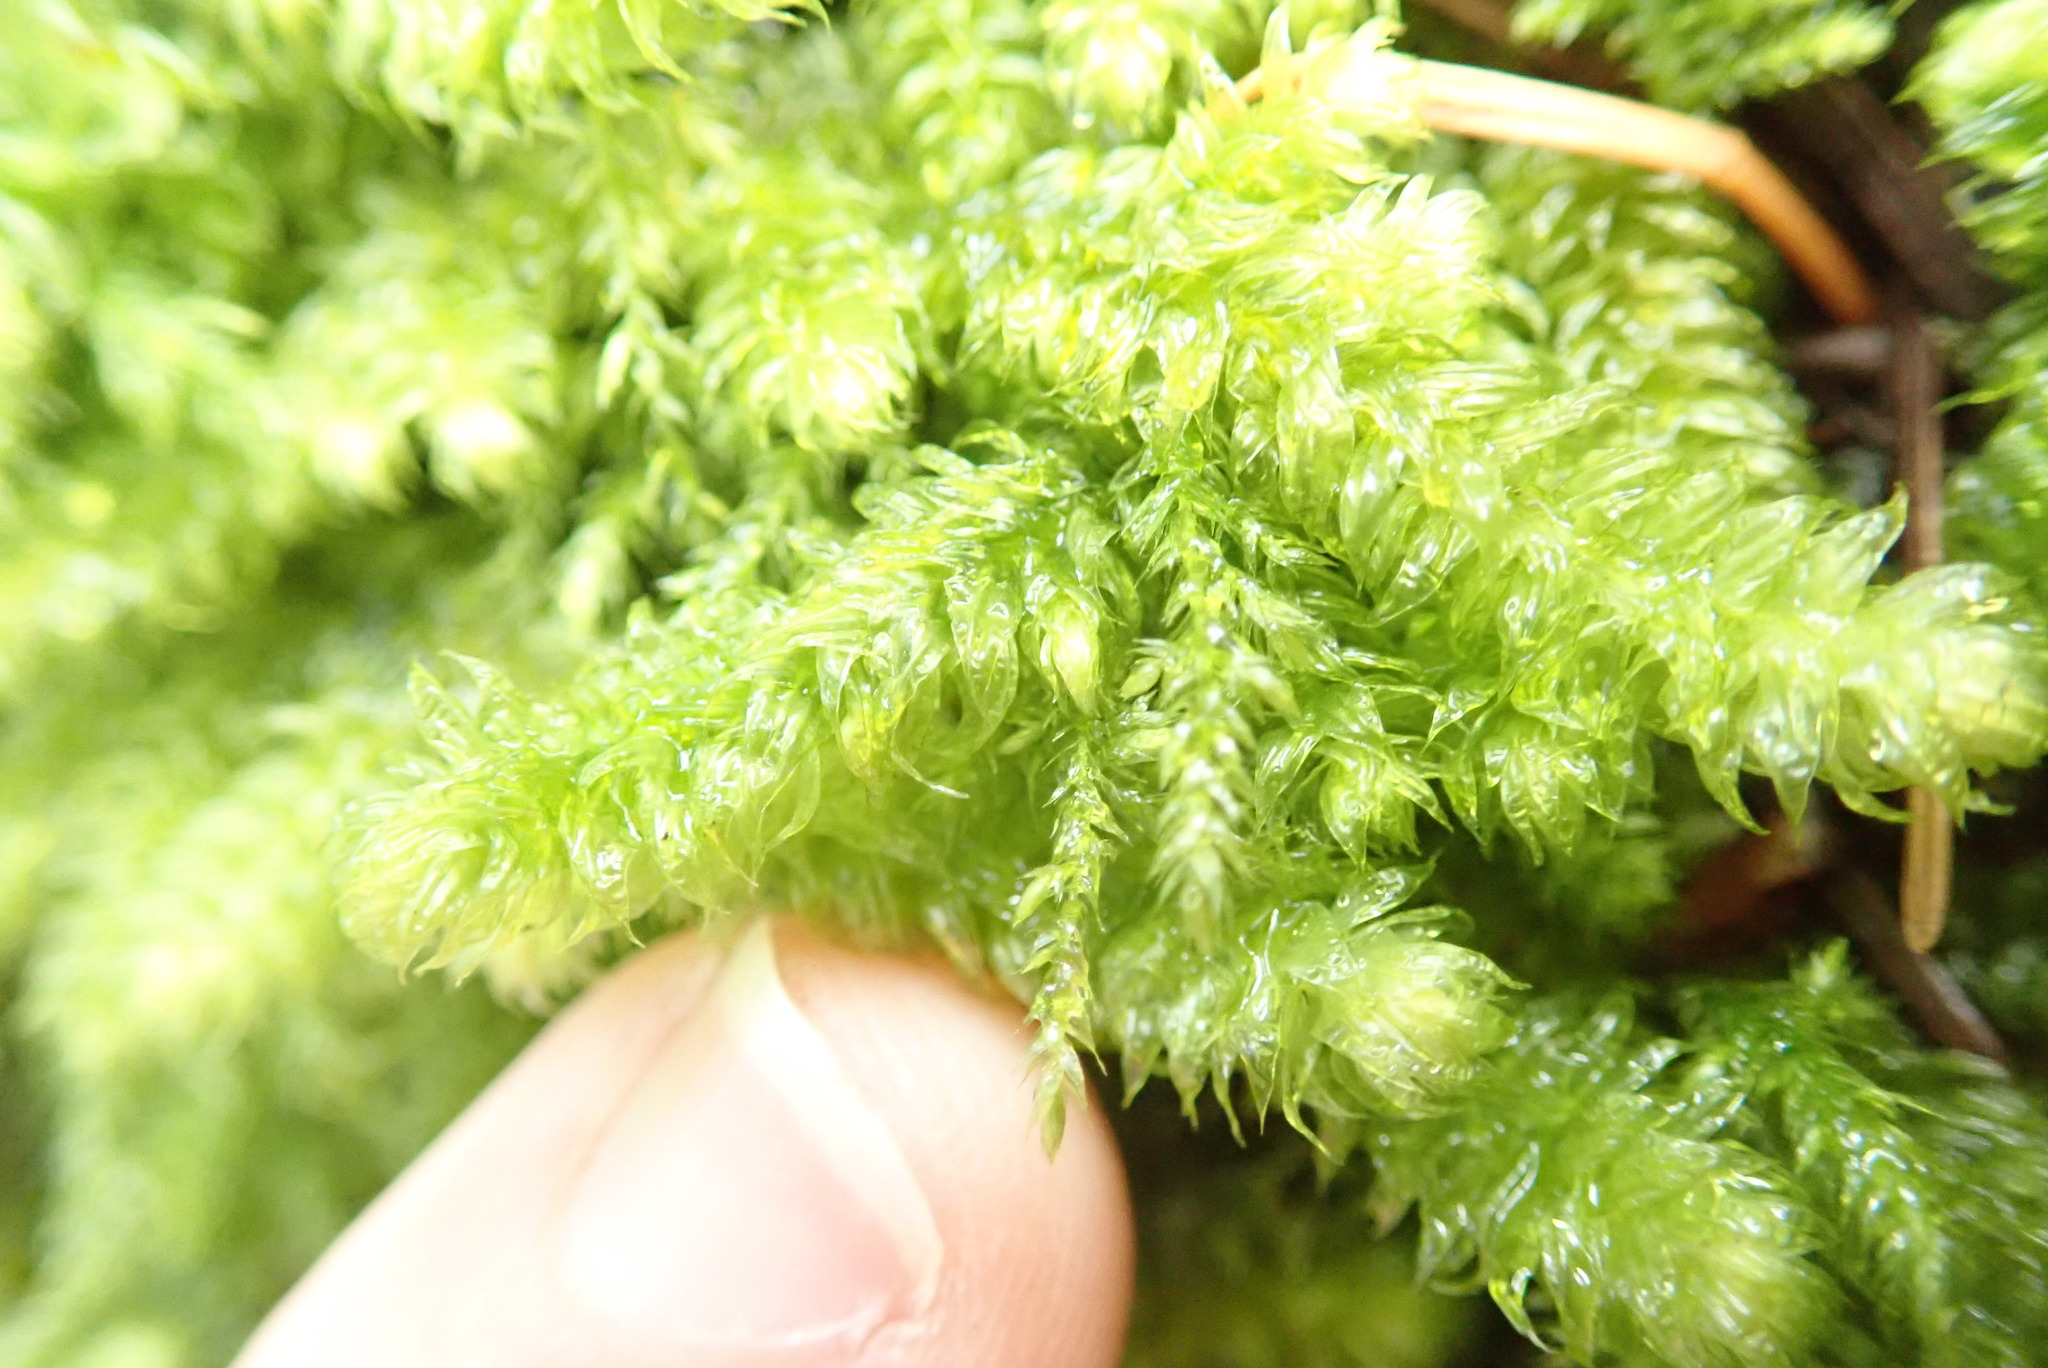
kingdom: Plantae
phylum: Bryophyta
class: Bryopsida
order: Hypnales
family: Hylocomiaceae
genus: Rhytidiopsis
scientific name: Rhytidiopsis robusta
